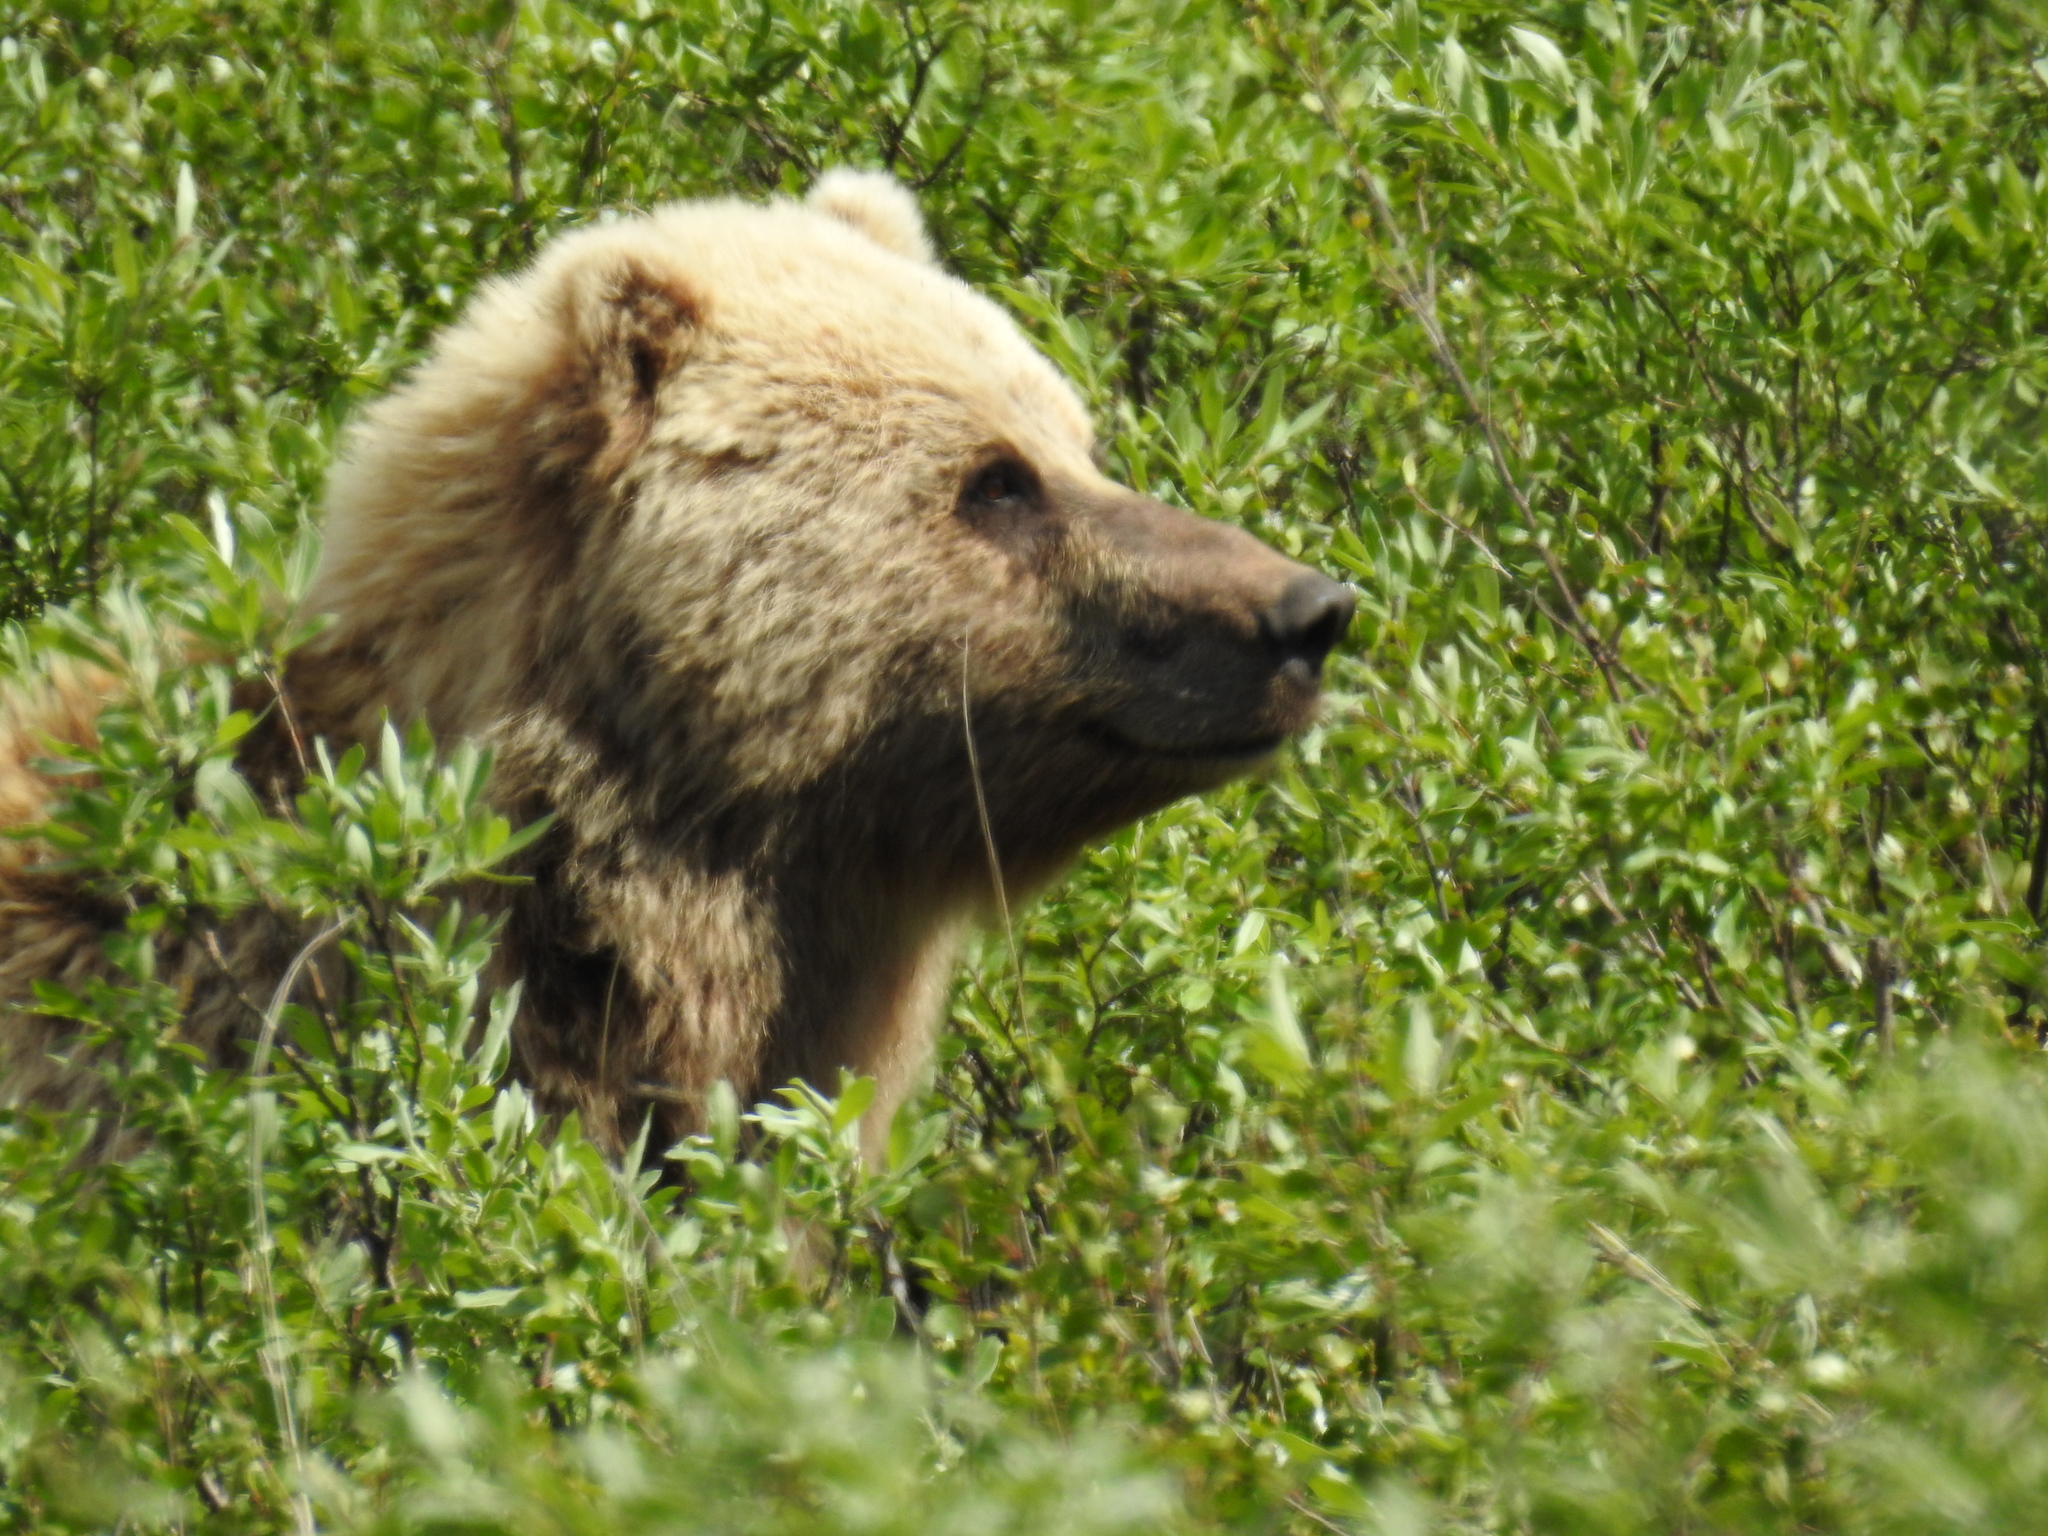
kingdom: Animalia
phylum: Chordata
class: Mammalia
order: Carnivora
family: Ursidae
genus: Ursus
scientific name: Ursus arctos
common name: Brown bear
